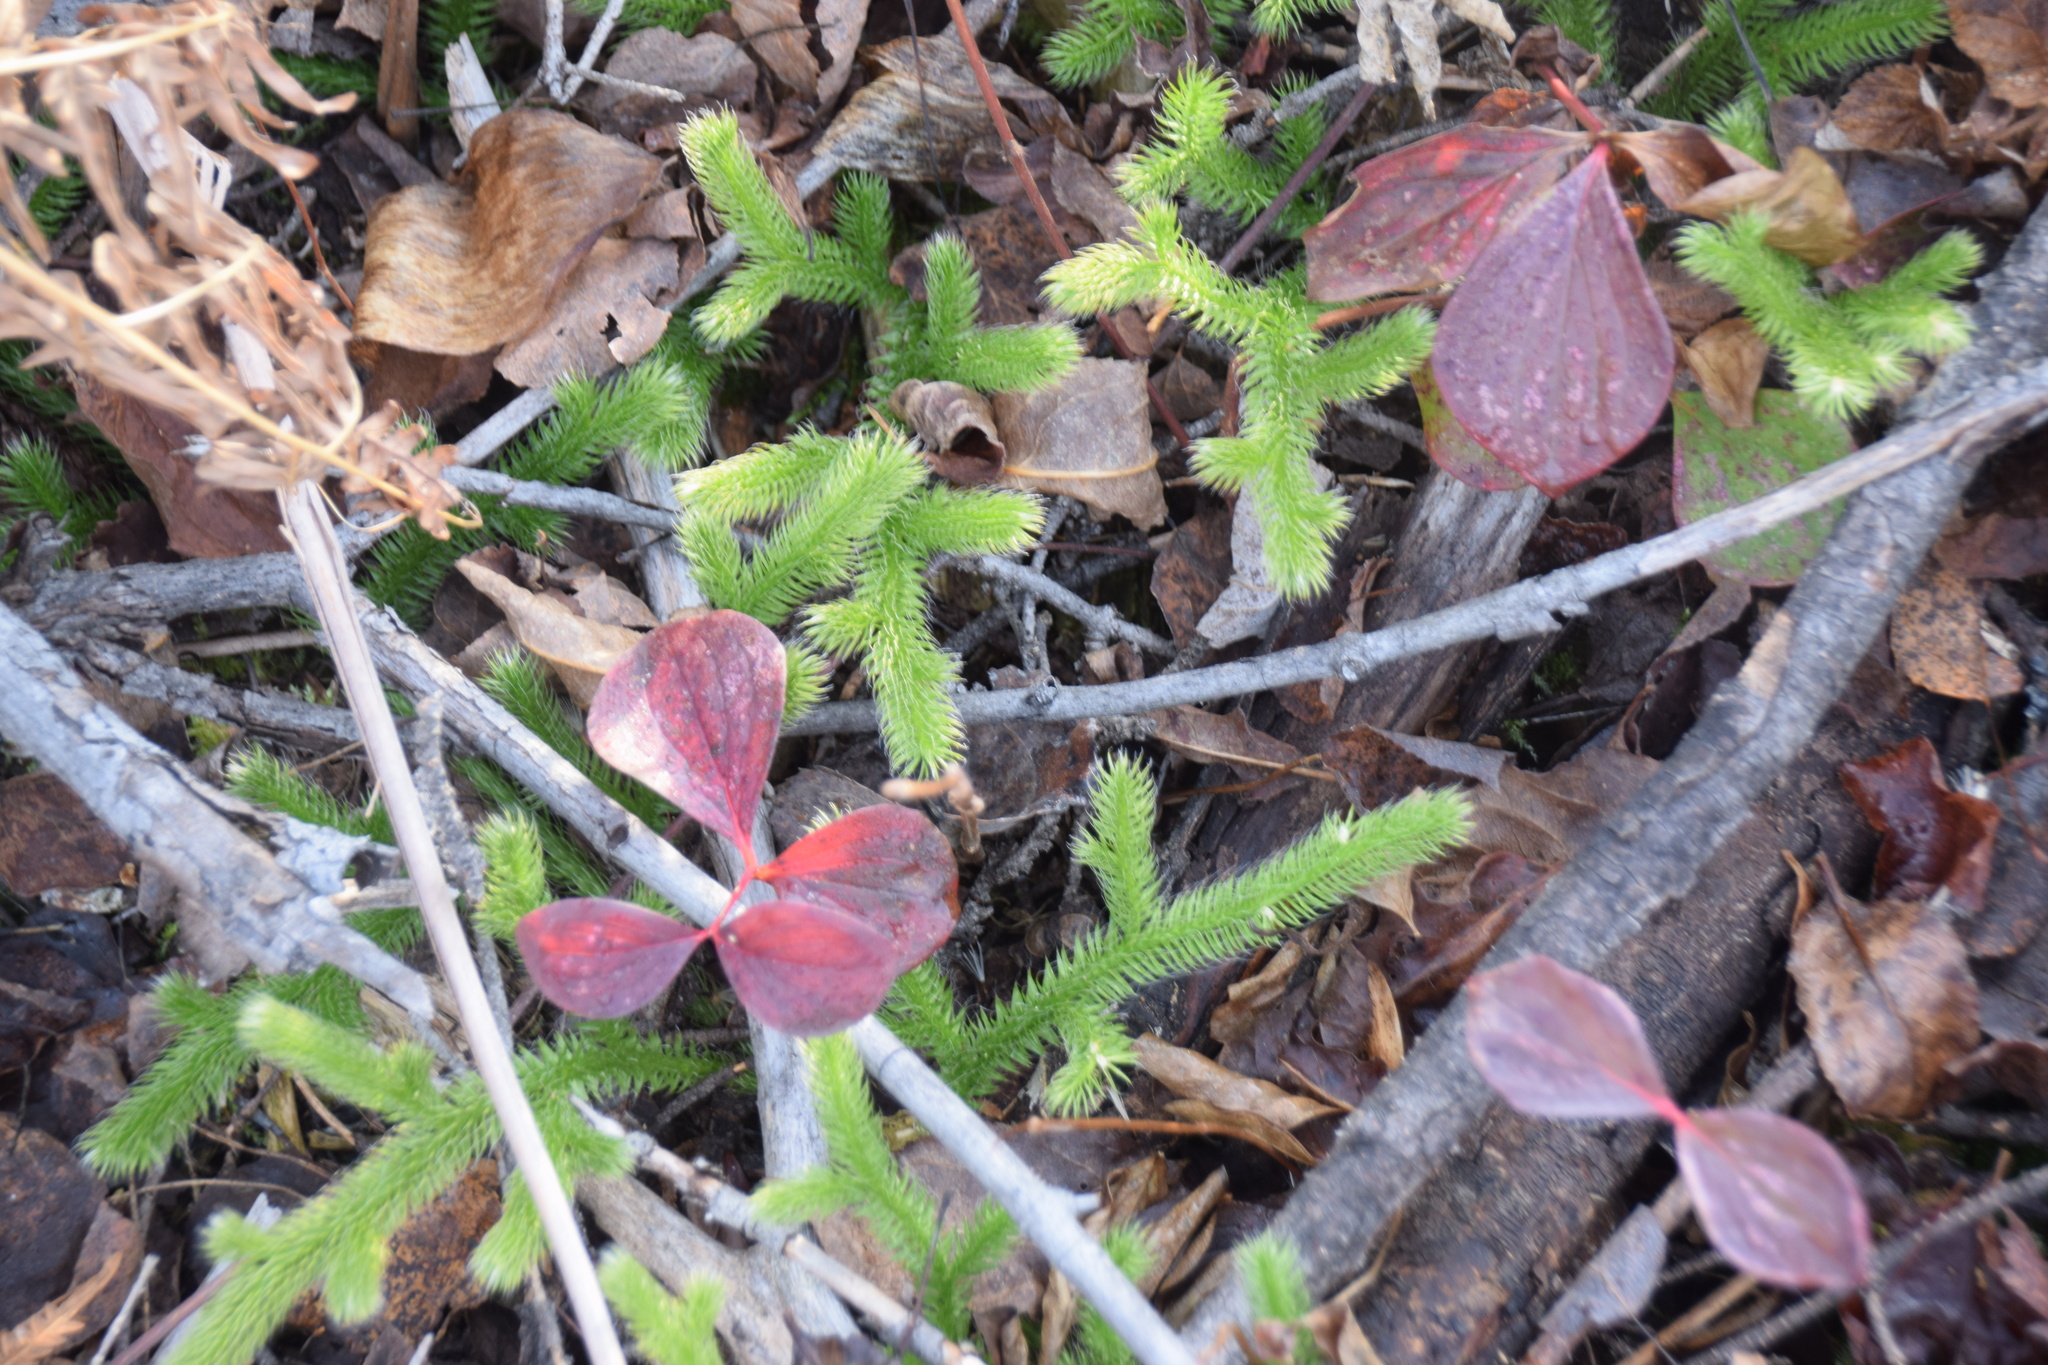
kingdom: Plantae
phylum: Tracheophyta
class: Lycopodiopsida
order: Lycopodiales
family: Lycopodiaceae
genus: Lycopodium
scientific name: Lycopodium clavatum
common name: Stag's-horn clubmoss
